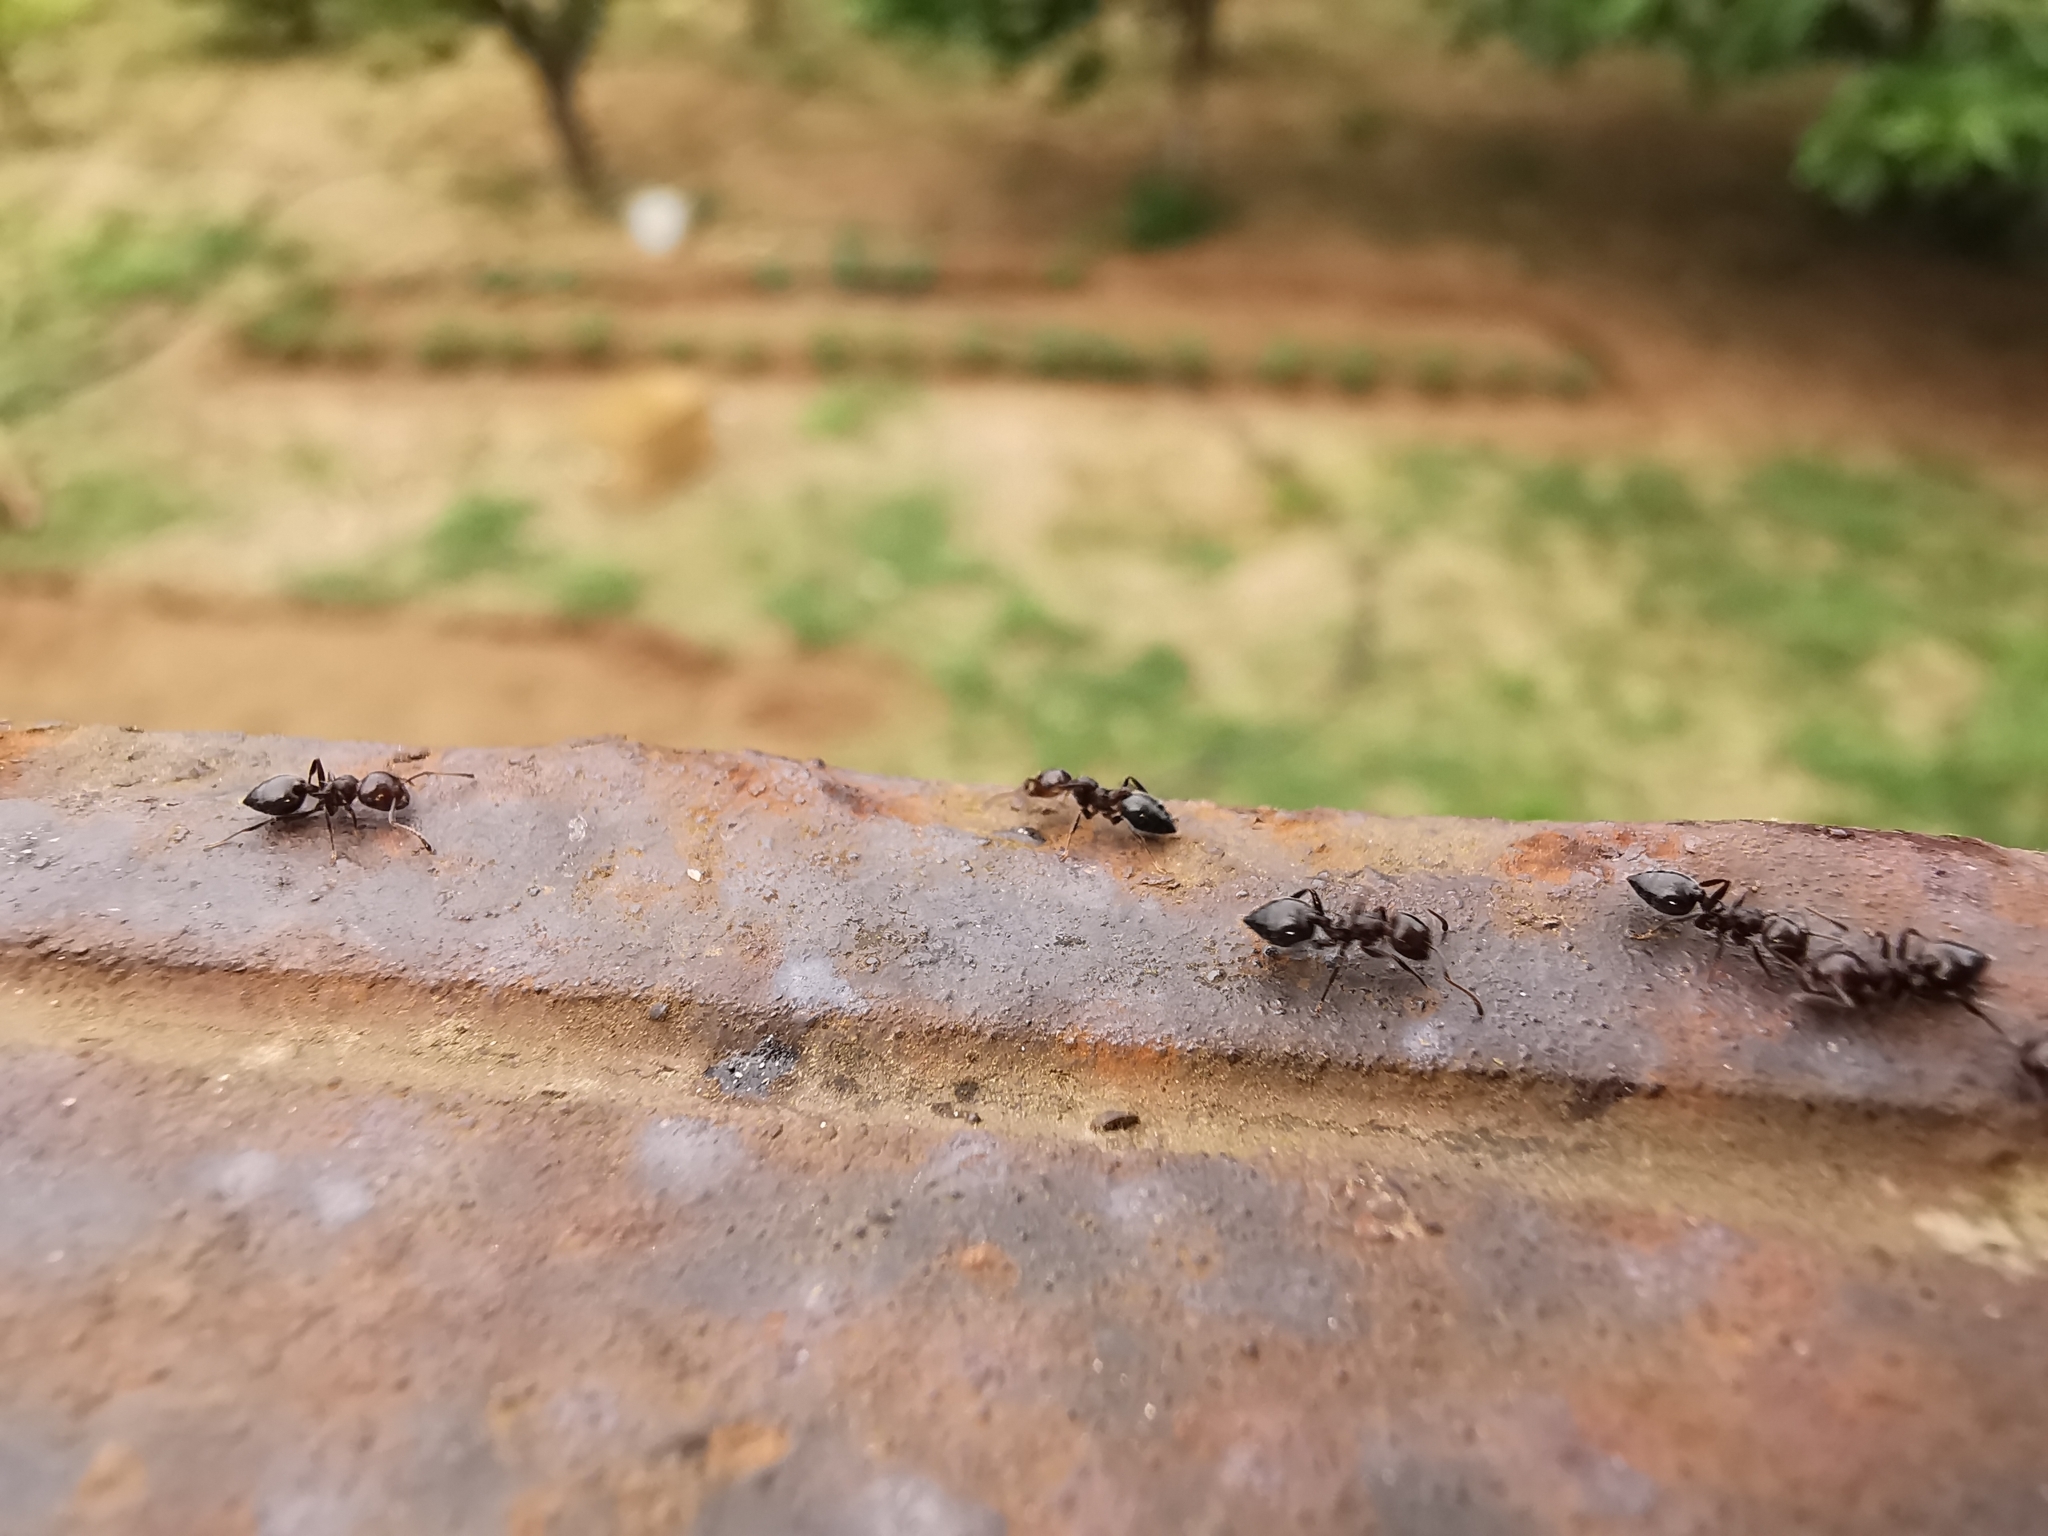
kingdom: Animalia
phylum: Arthropoda
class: Insecta
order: Hymenoptera
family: Formicidae
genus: Crematogaster
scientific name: Crematogaster ionia
